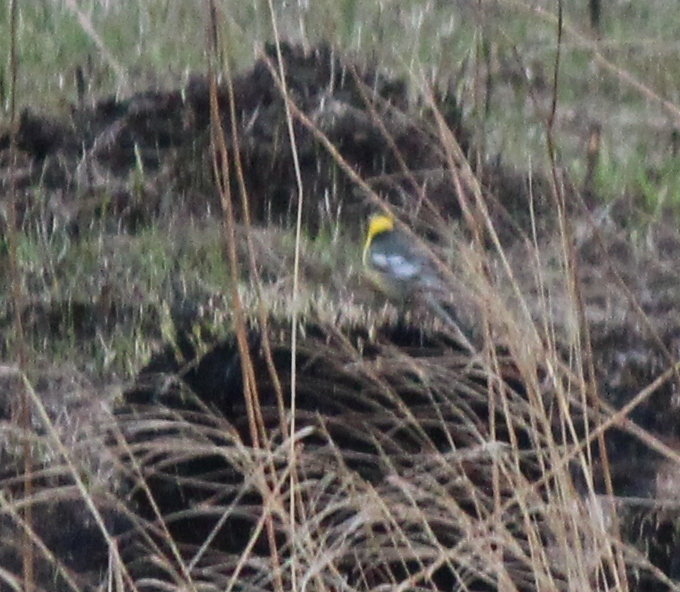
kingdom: Animalia
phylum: Chordata
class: Aves
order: Passeriformes
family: Motacillidae
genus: Motacilla
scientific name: Motacilla citreola
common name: Citrine wagtail
